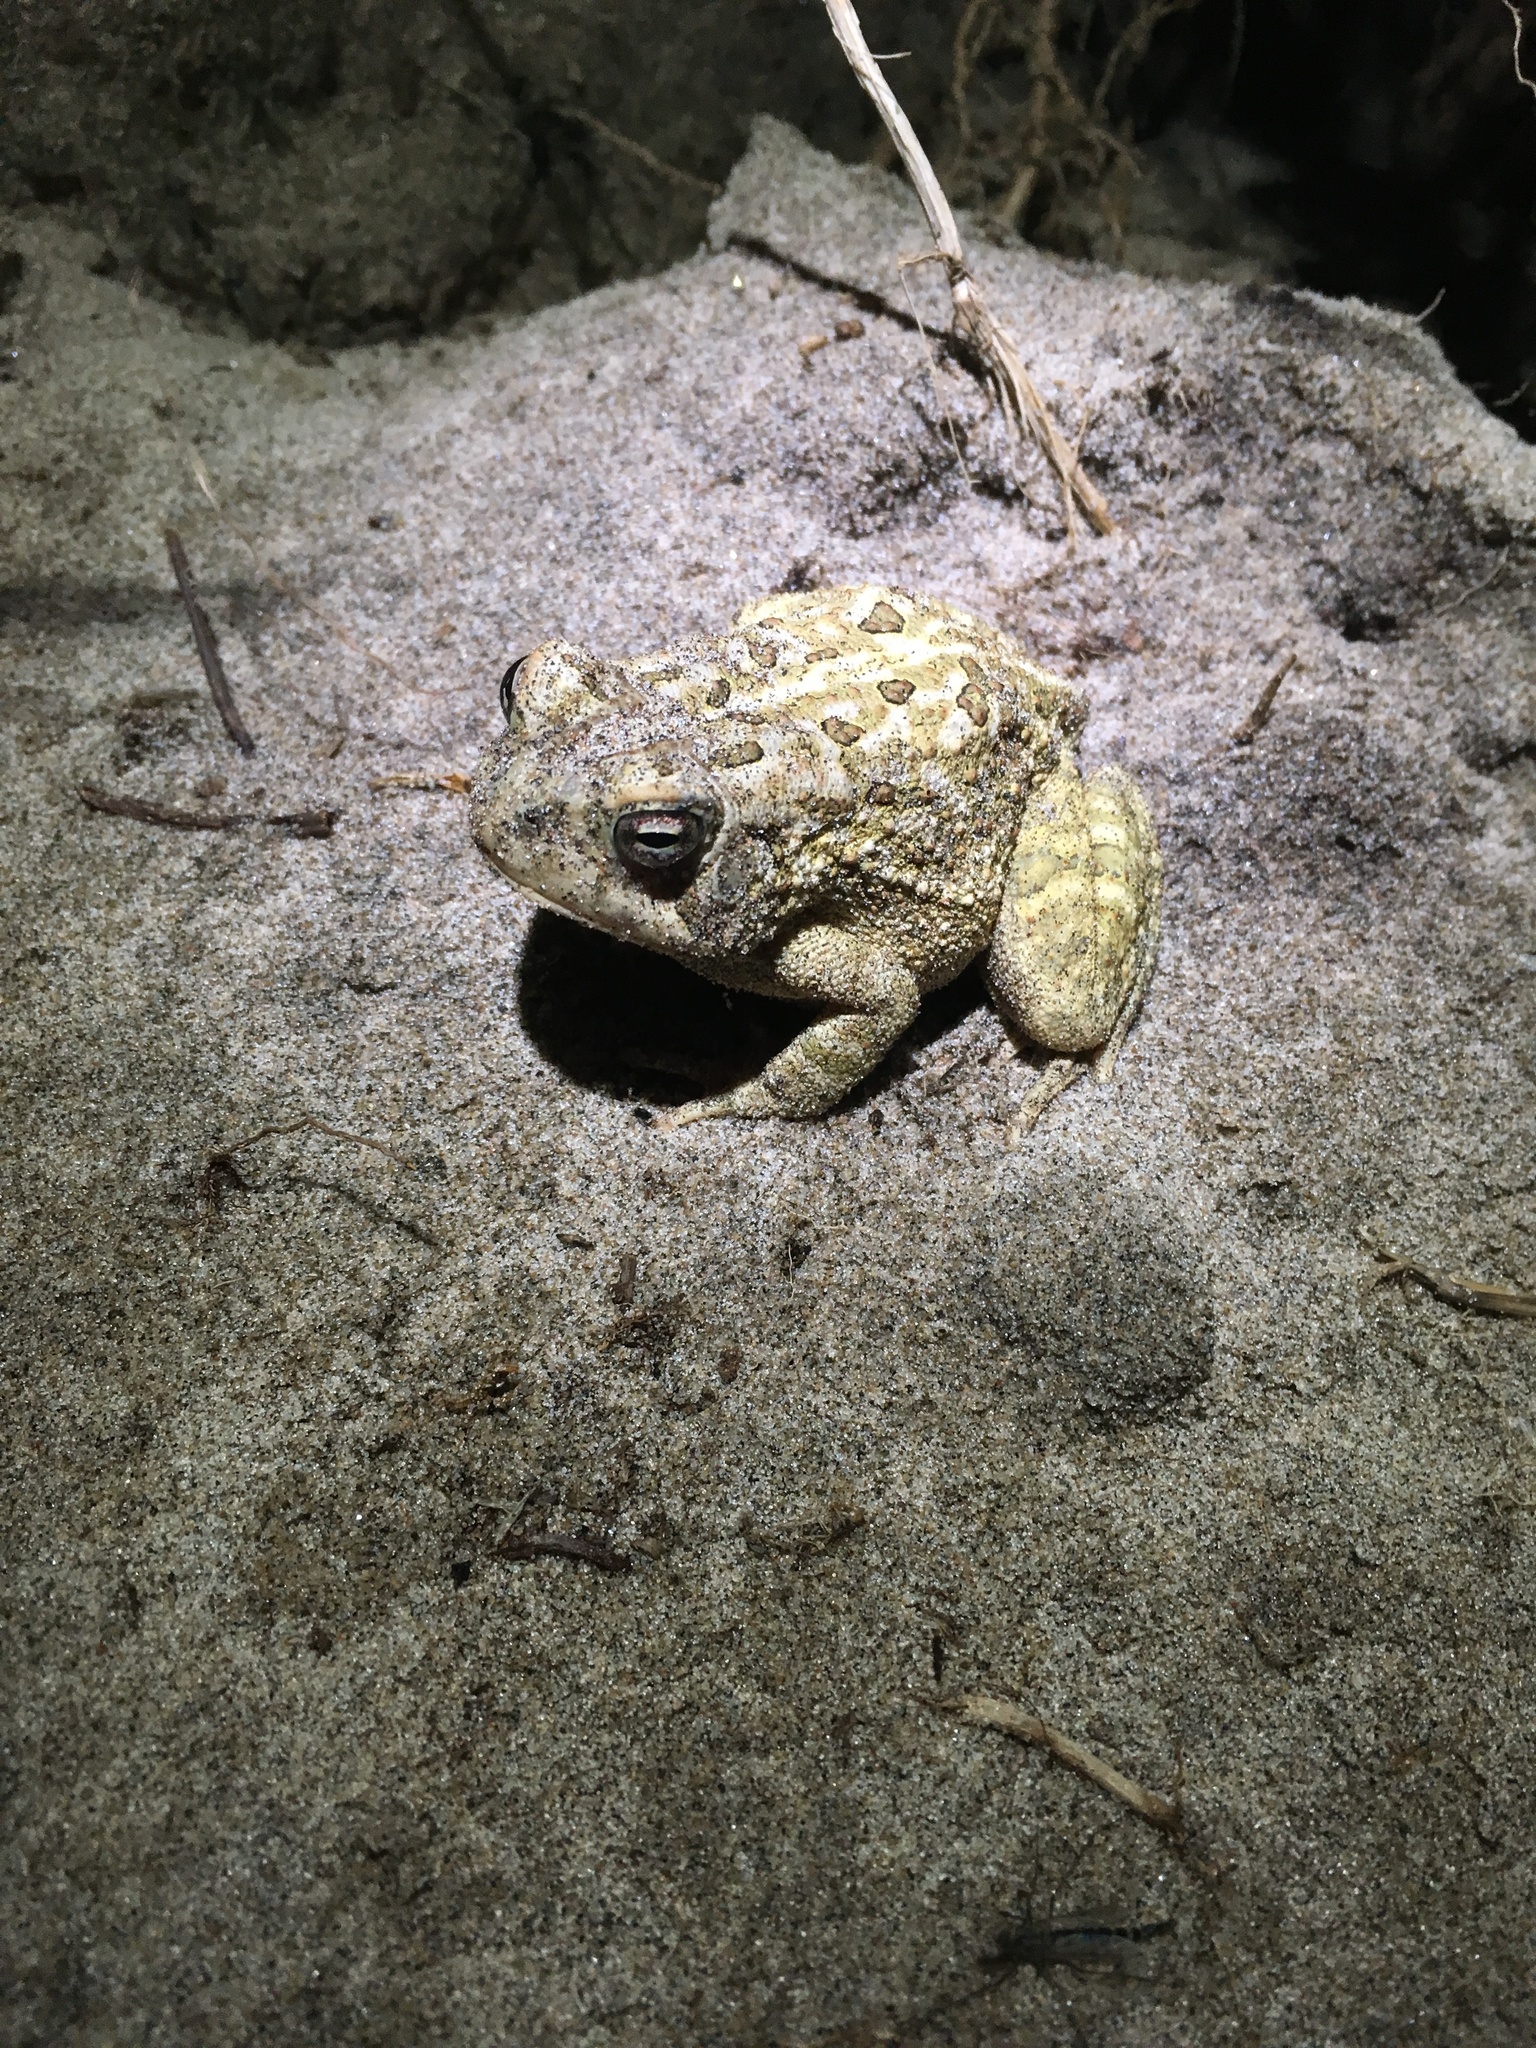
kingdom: Animalia
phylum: Chordata
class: Amphibia
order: Anura
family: Bufonidae
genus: Anaxyrus
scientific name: Anaxyrus fowleri
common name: Fowler's toad
